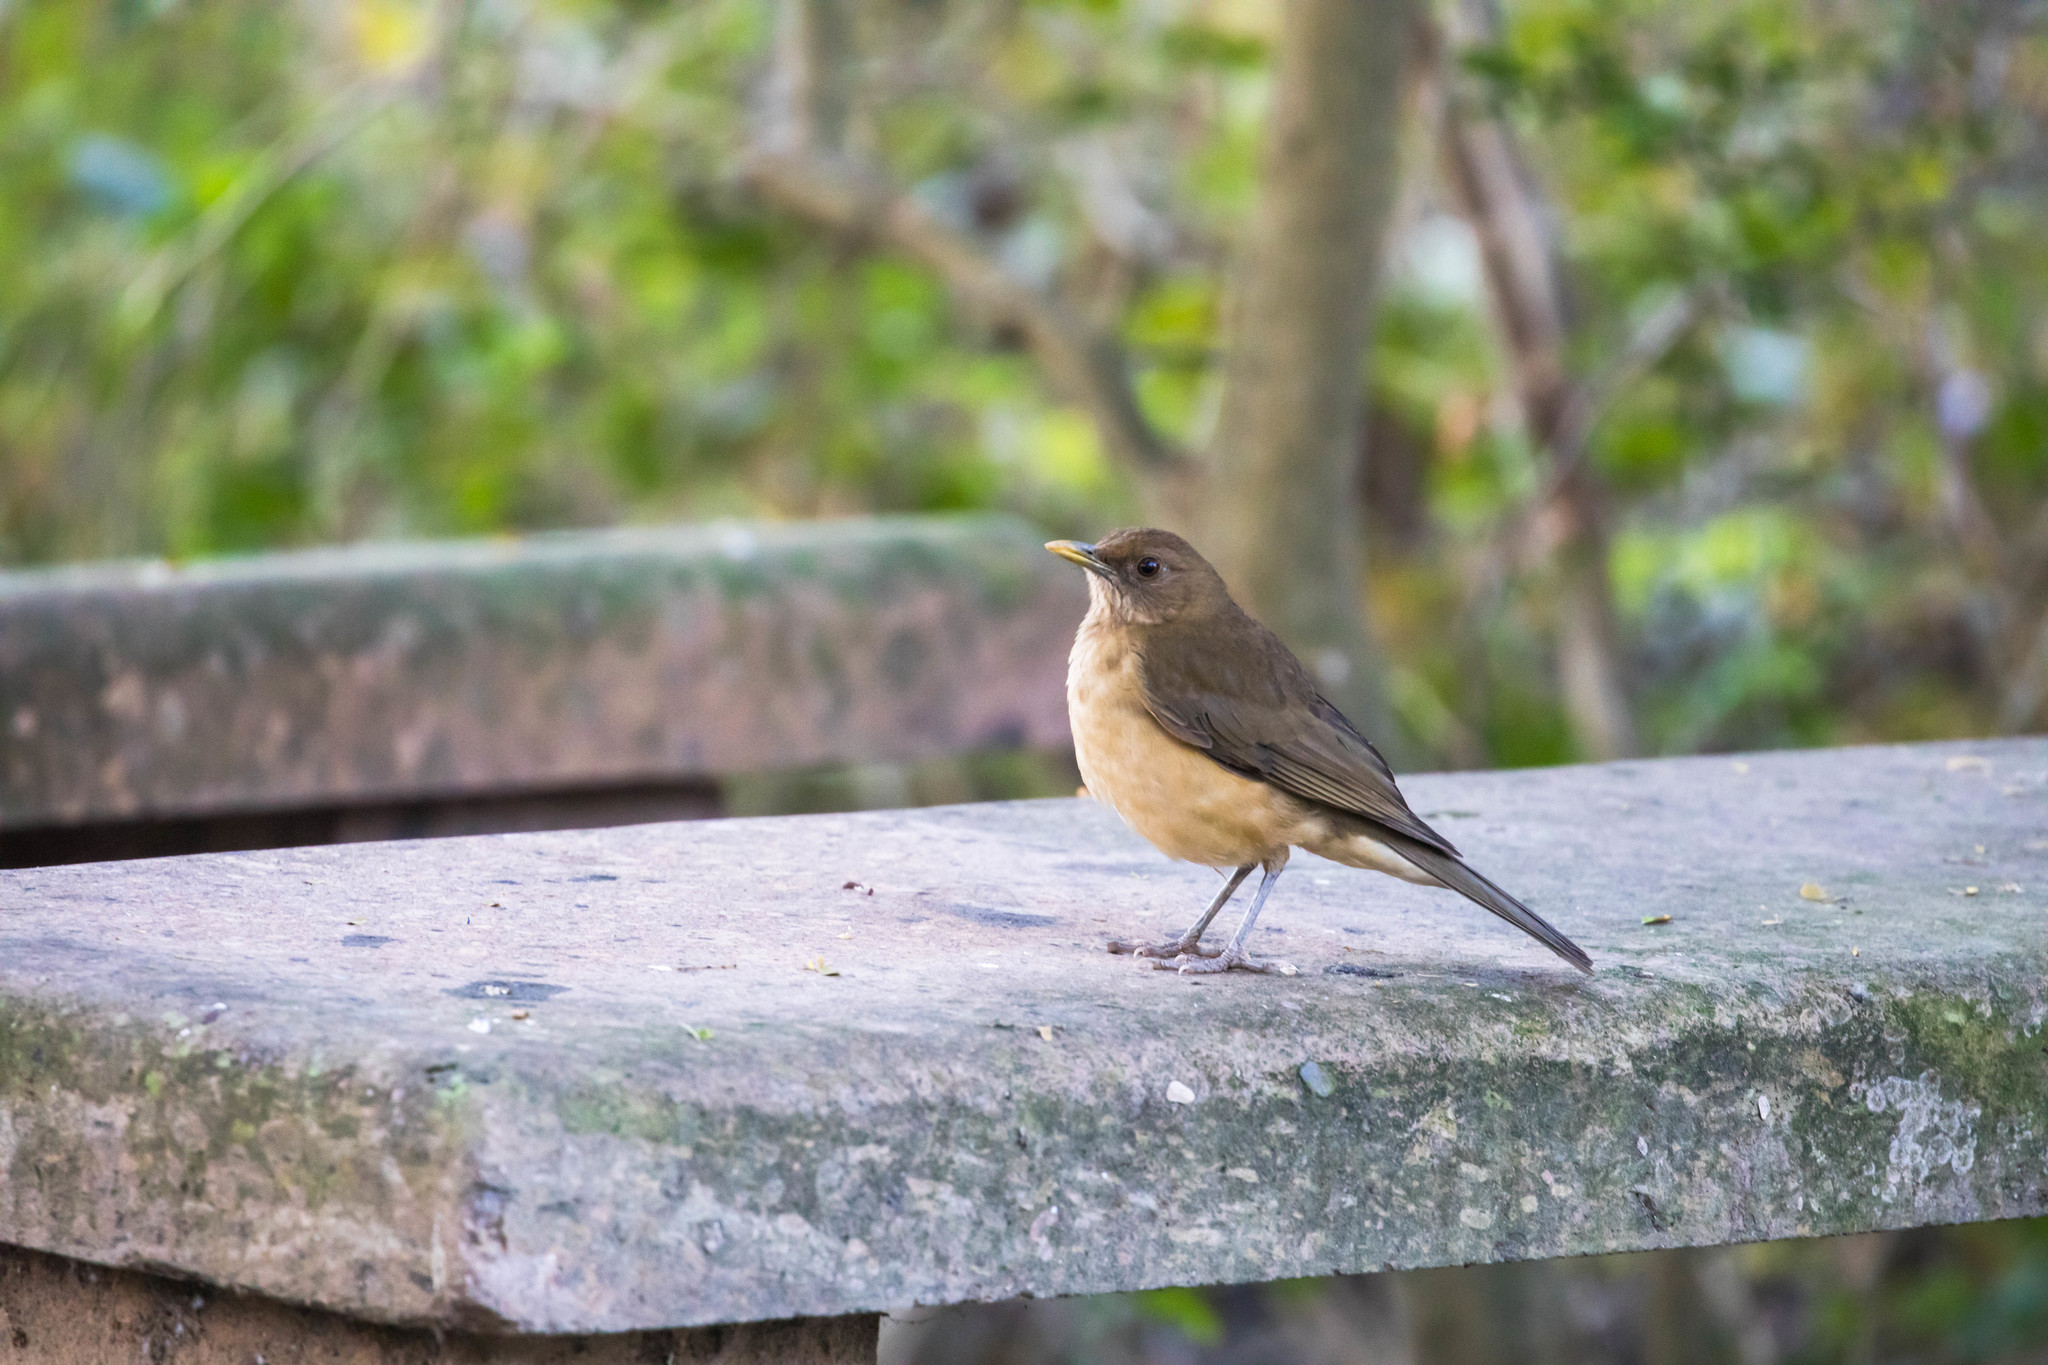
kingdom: Animalia
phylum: Chordata
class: Aves
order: Passeriformes
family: Turdidae
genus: Turdus
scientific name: Turdus grayi
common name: Clay-colored thrush
